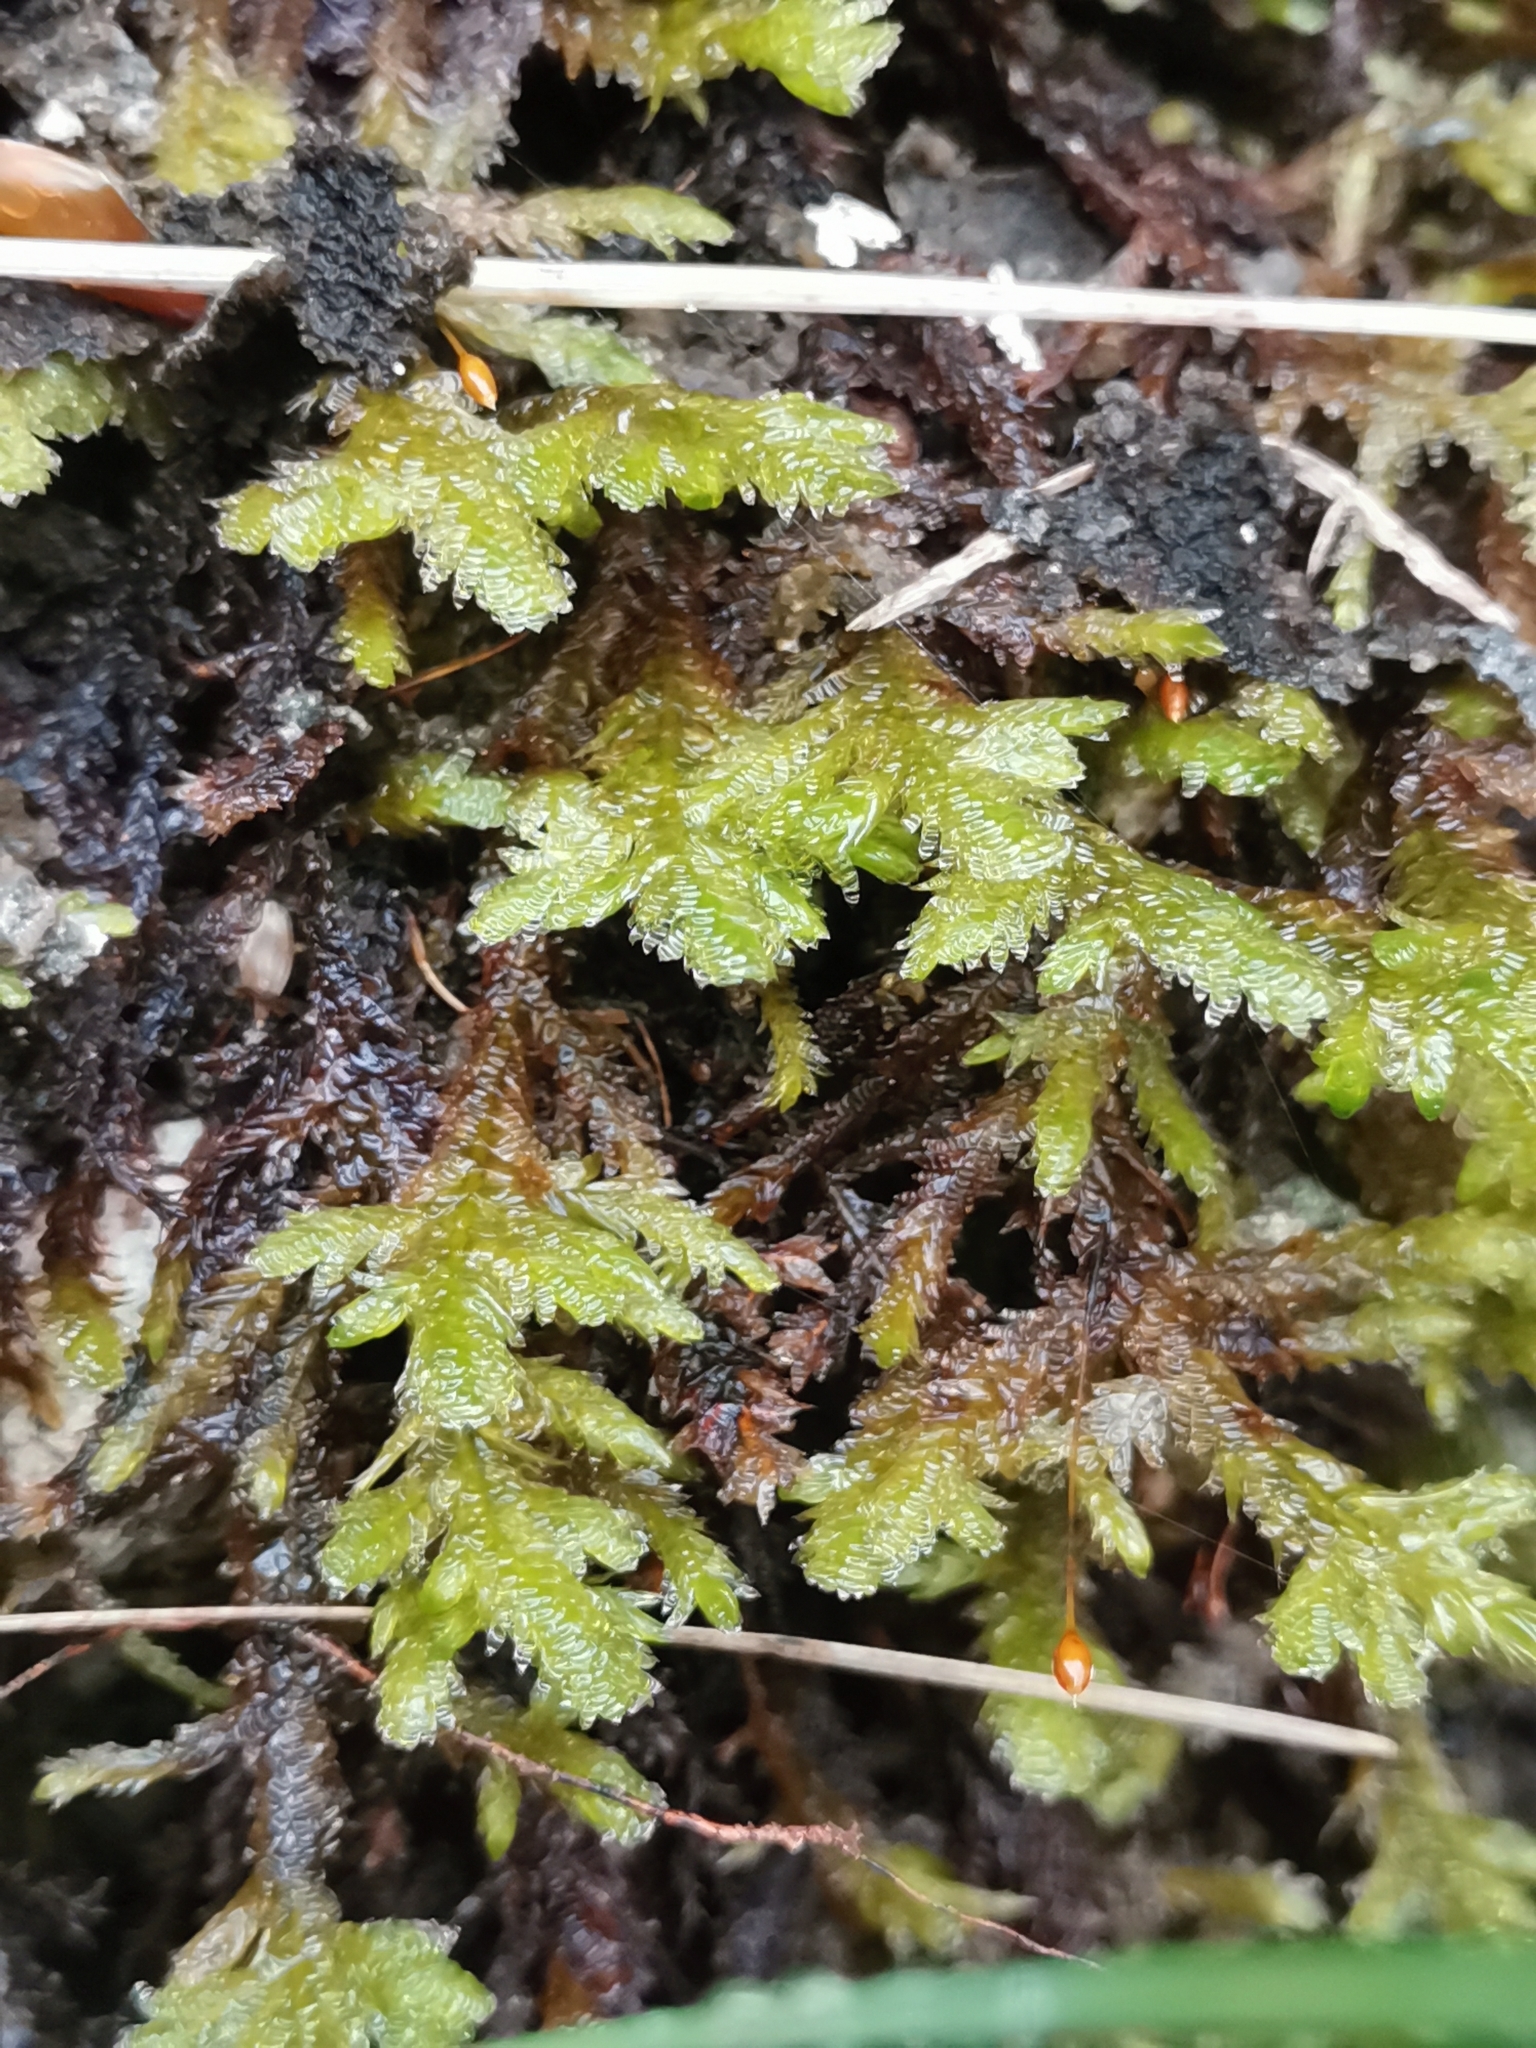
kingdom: Plantae
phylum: Bryophyta
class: Bryopsida
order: Hypnales
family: Neckeraceae
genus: Exsertotheca
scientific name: Exsertotheca crispa
